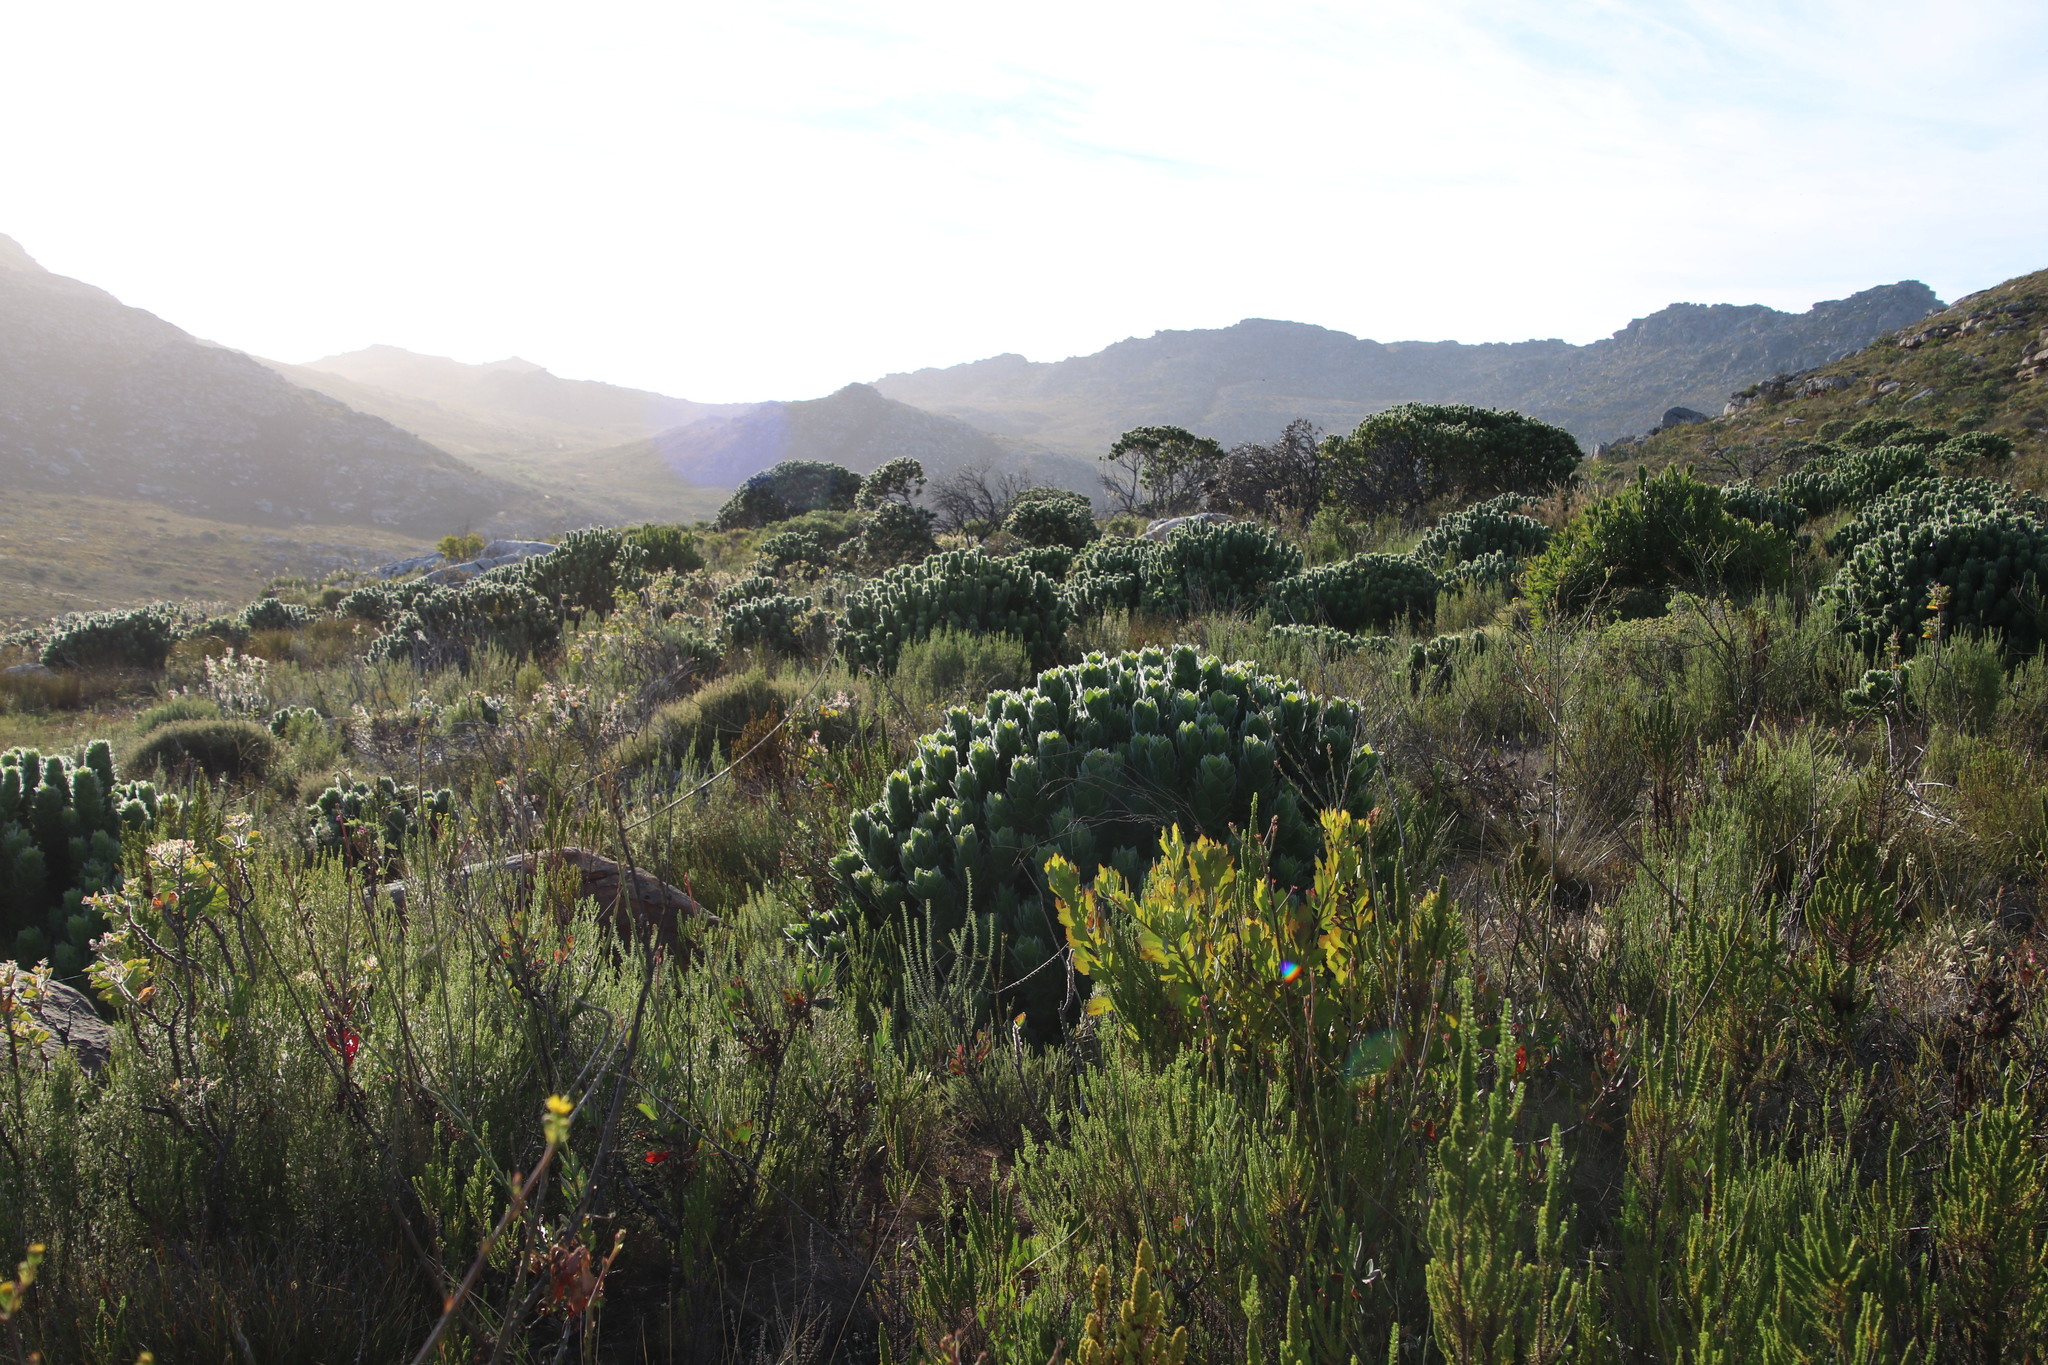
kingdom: Plantae
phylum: Tracheophyta
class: Magnoliopsida
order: Proteales
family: Proteaceae
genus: Leucospermum
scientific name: Leucospermum conocarpodendron
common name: Tree pincushion
